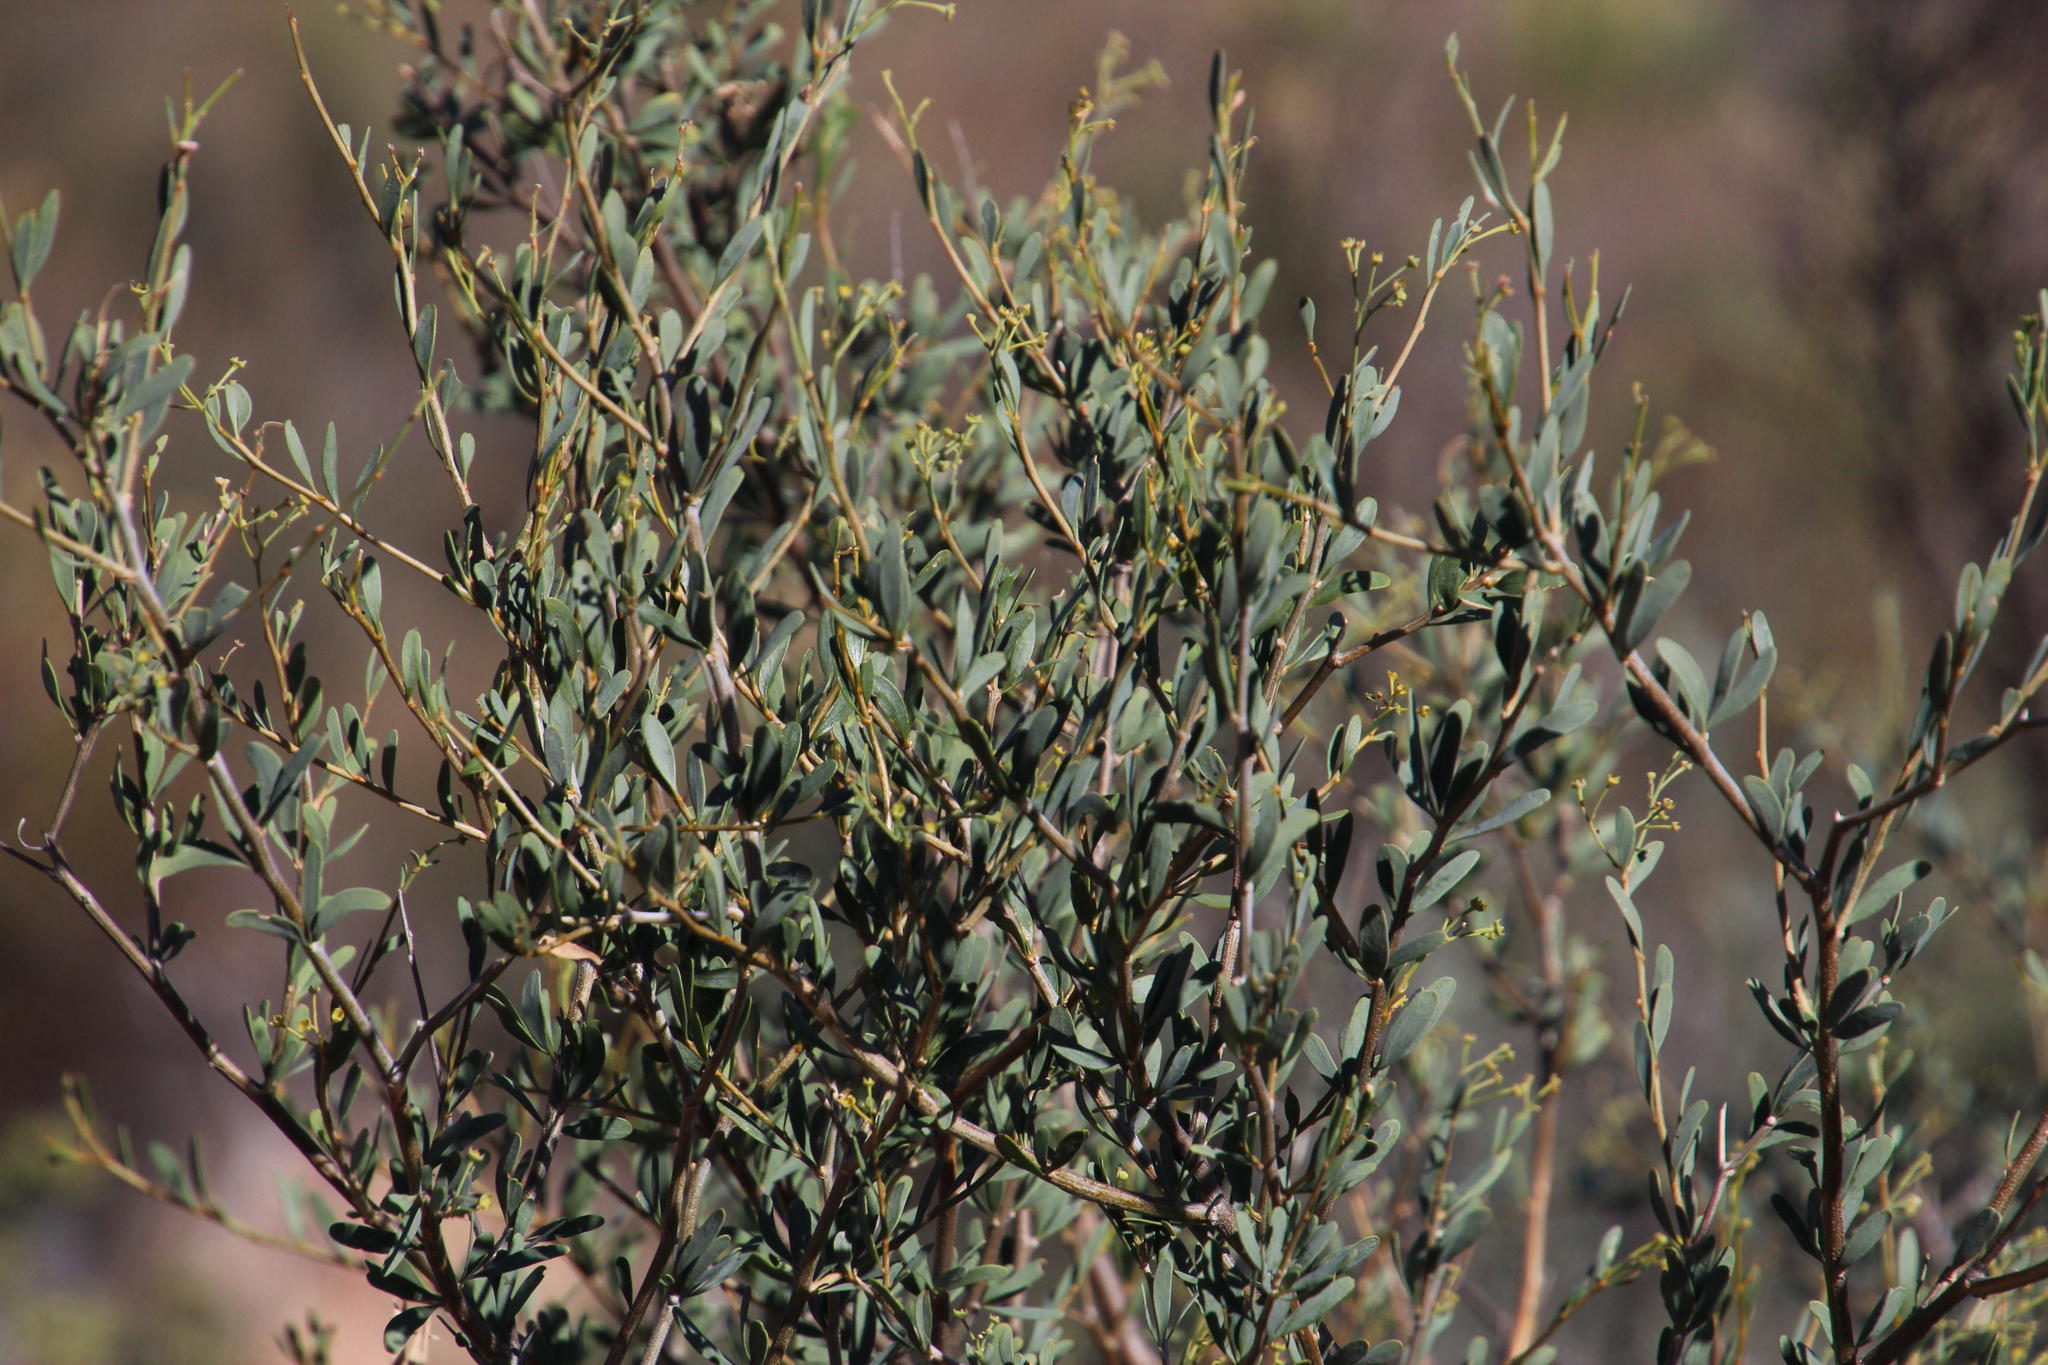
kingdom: Plantae
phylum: Tracheophyta
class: Magnoliopsida
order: Solanales
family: Montiniaceae
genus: Montinia
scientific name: Montinia caryophyllacea
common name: Wild clove-bush
